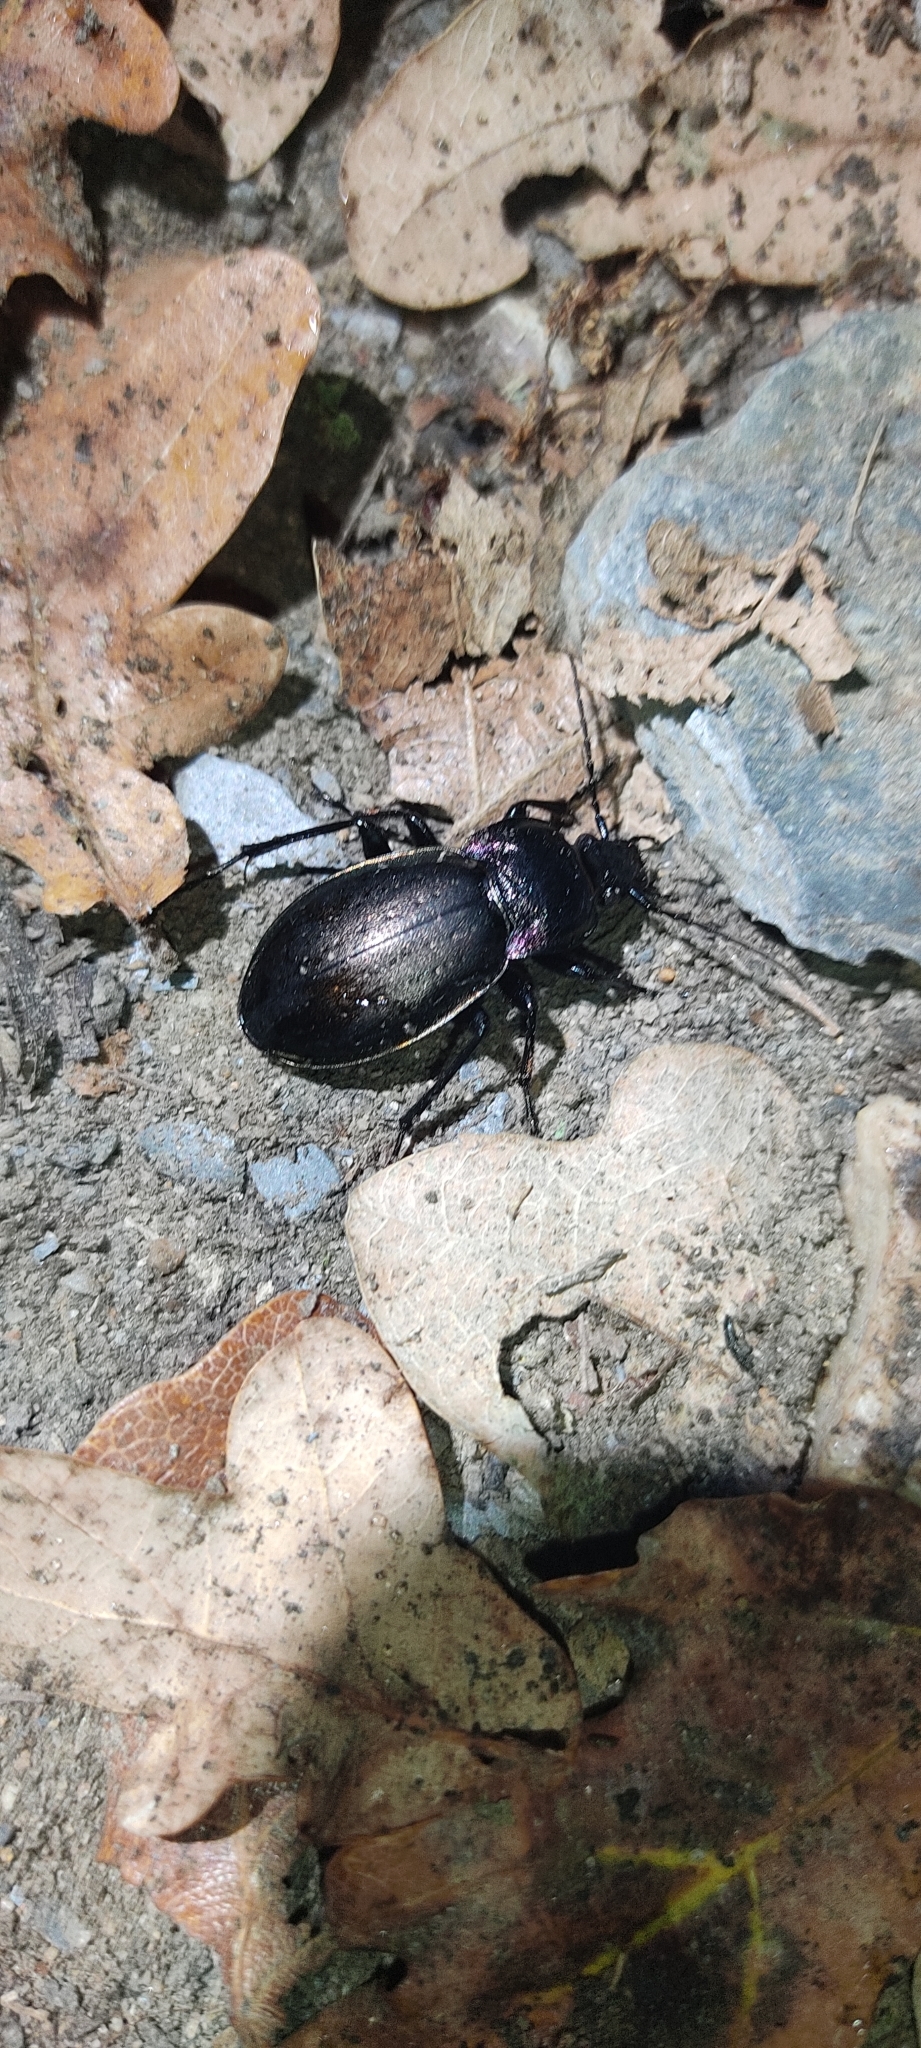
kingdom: Animalia
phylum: Arthropoda
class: Insecta
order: Coleoptera
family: Carabidae
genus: Carabus
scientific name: Carabus nemoralis
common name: European ground beetle
